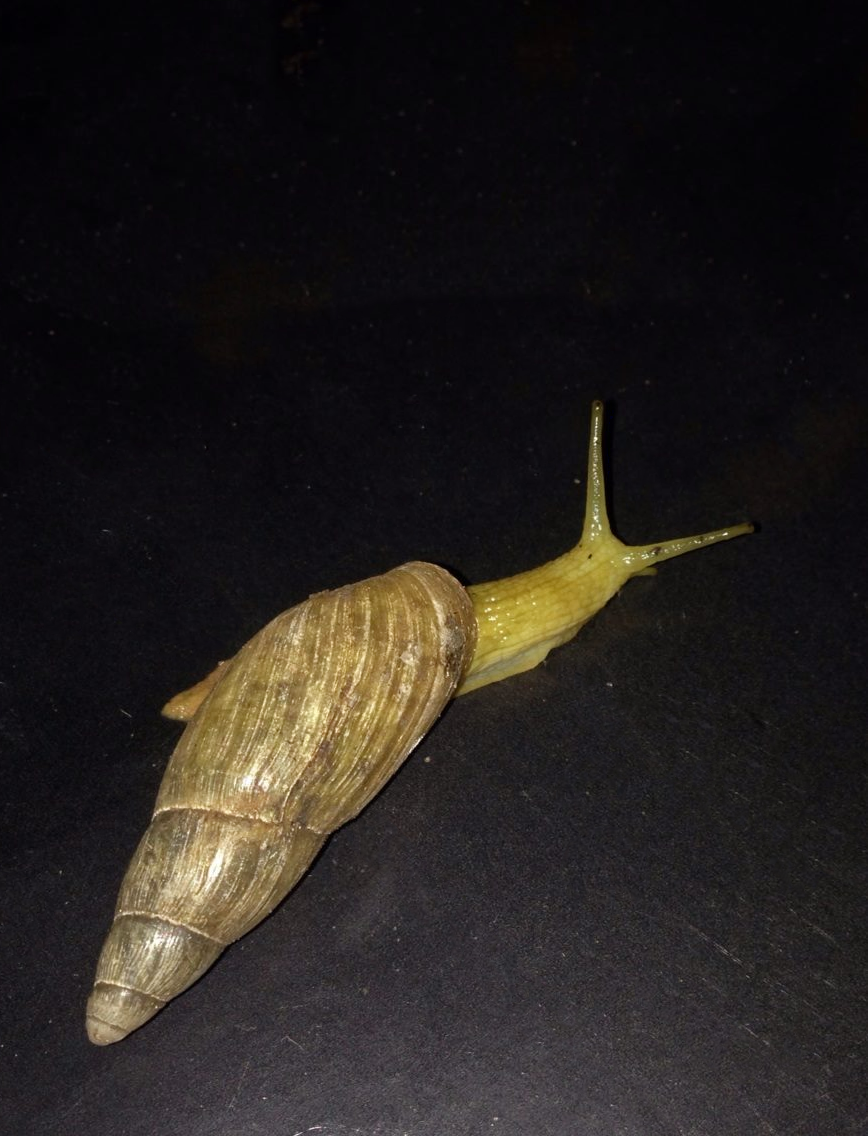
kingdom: Animalia
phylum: Mollusca
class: Gastropoda
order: Stylommatophora
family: Spiraxidae
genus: Poiretia
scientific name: Poiretia compressa
